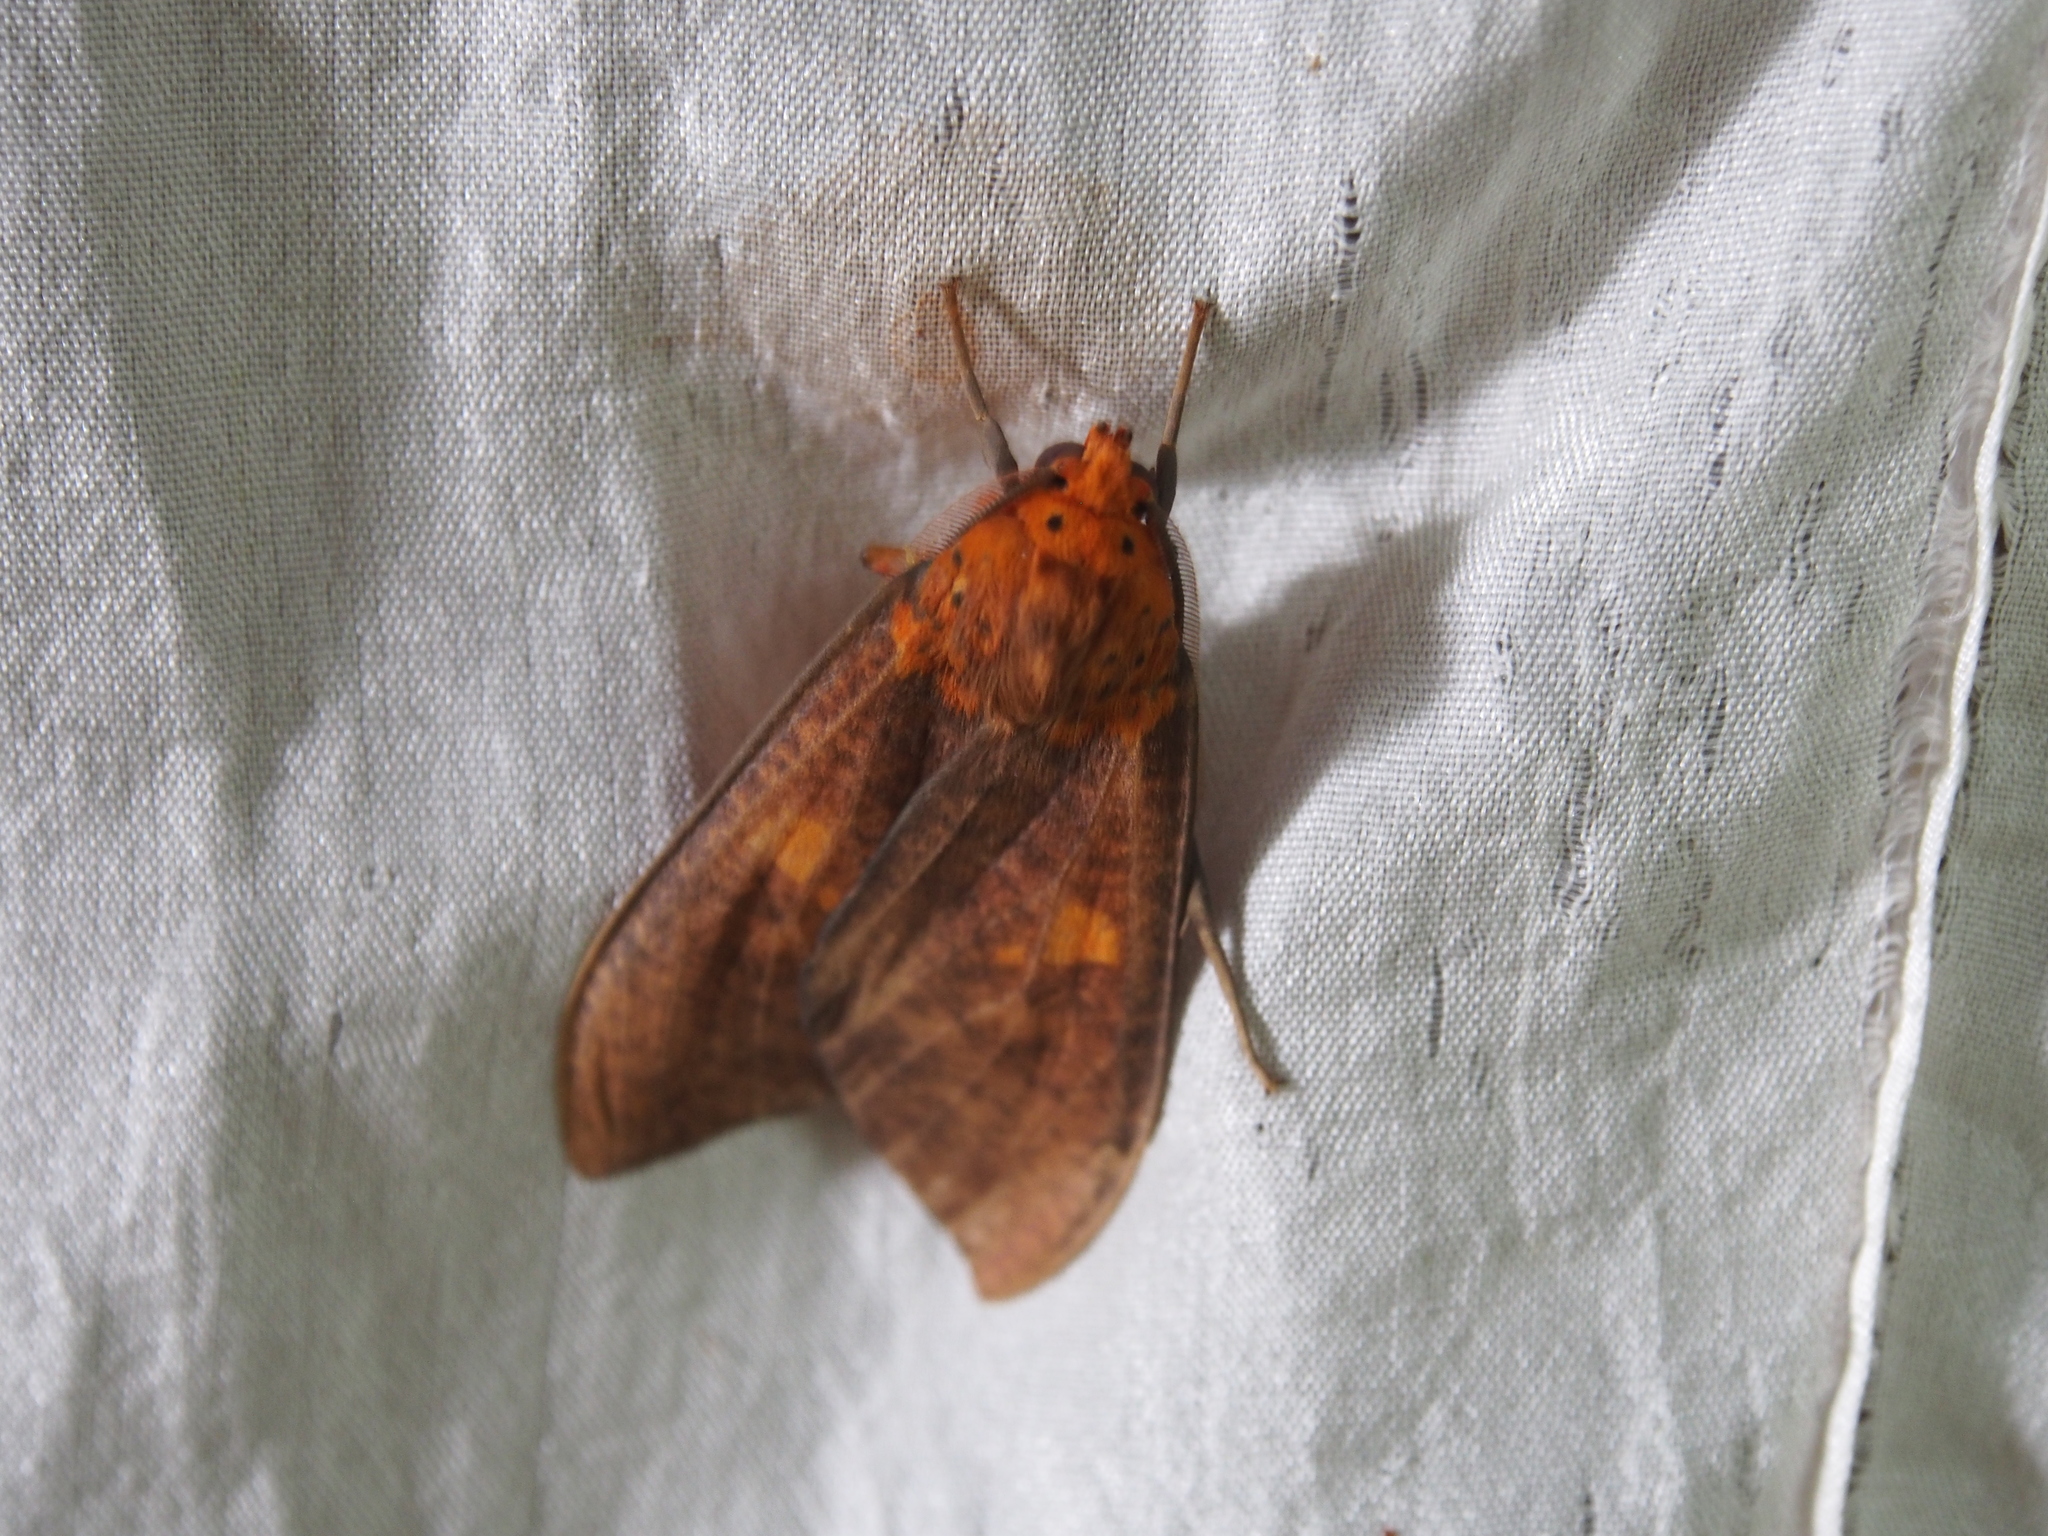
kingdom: Animalia
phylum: Arthropoda
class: Insecta
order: Lepidoptera
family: Erebidae
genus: Ammalo
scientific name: Ammalo helops
